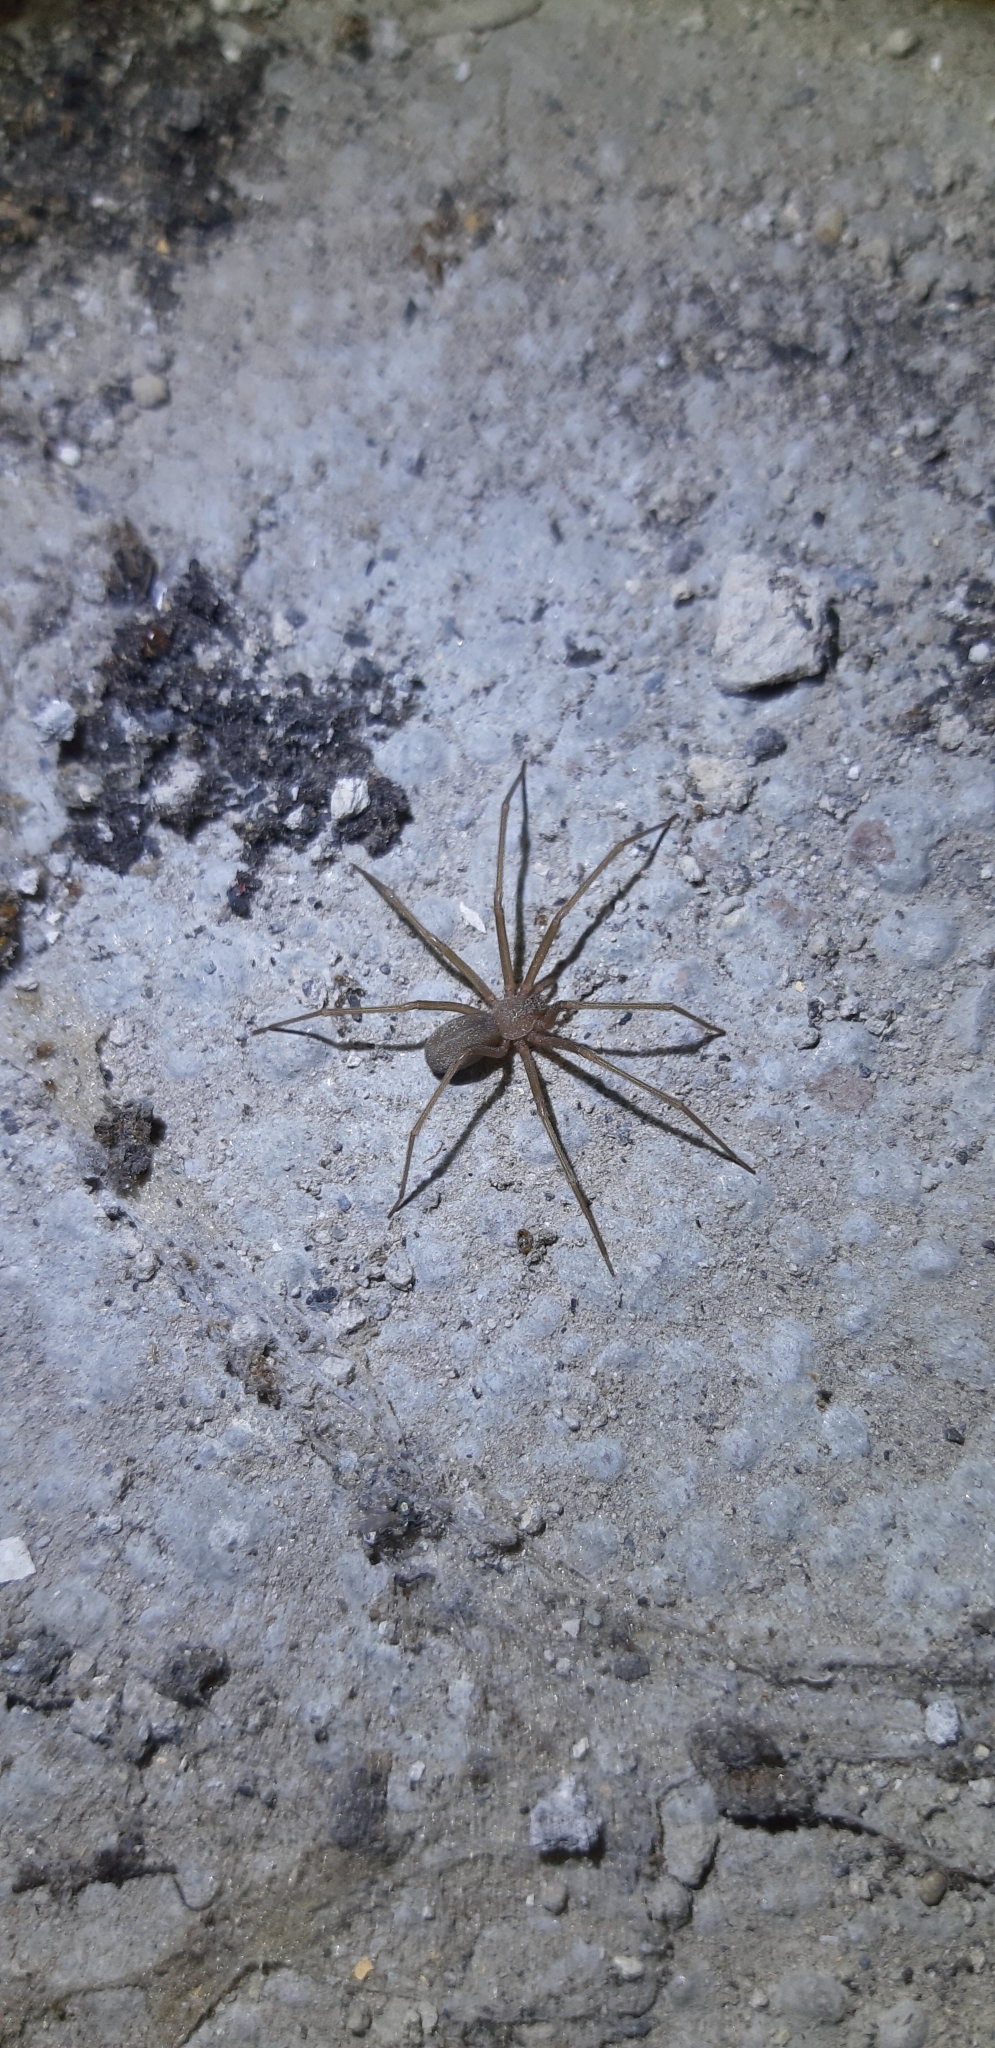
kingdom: Animalia
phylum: Arthropoda
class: Arachnida
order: Araneae
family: Sicariidae
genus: Loxosceles
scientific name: Loxosceles rufescens
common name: Mediterranean recluse spider
